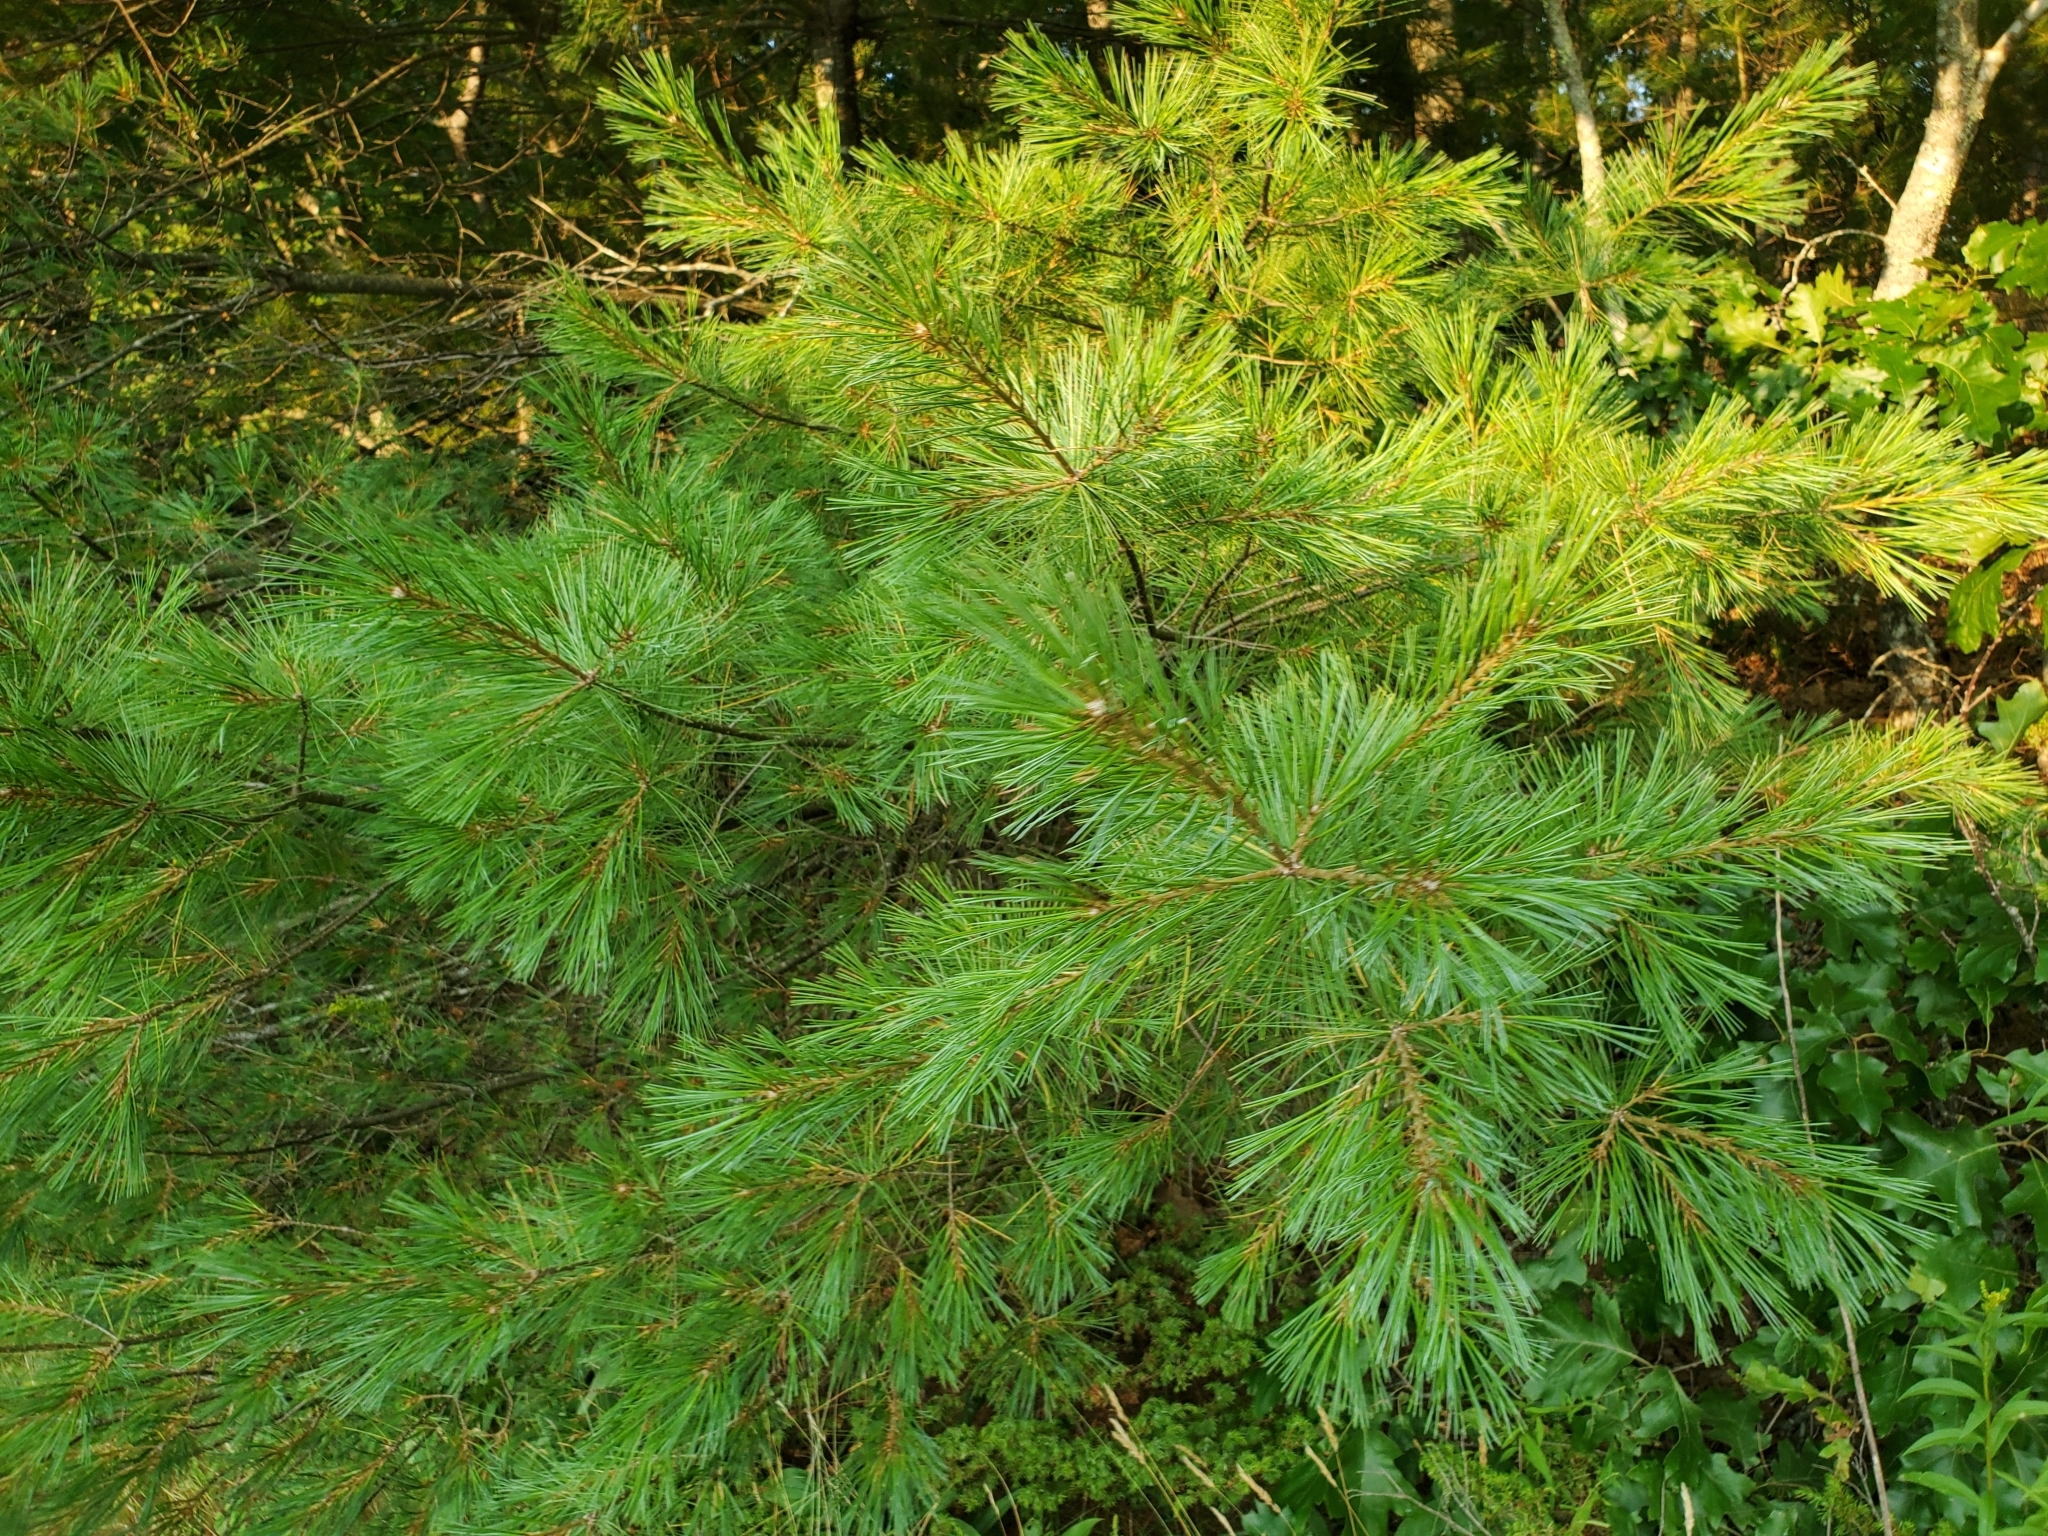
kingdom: Plantae
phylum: Tracheophyta
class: Pinopsida
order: Pinales
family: Pinaceae
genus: Pinus
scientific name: Pinus strobus
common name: Weymouth pine
